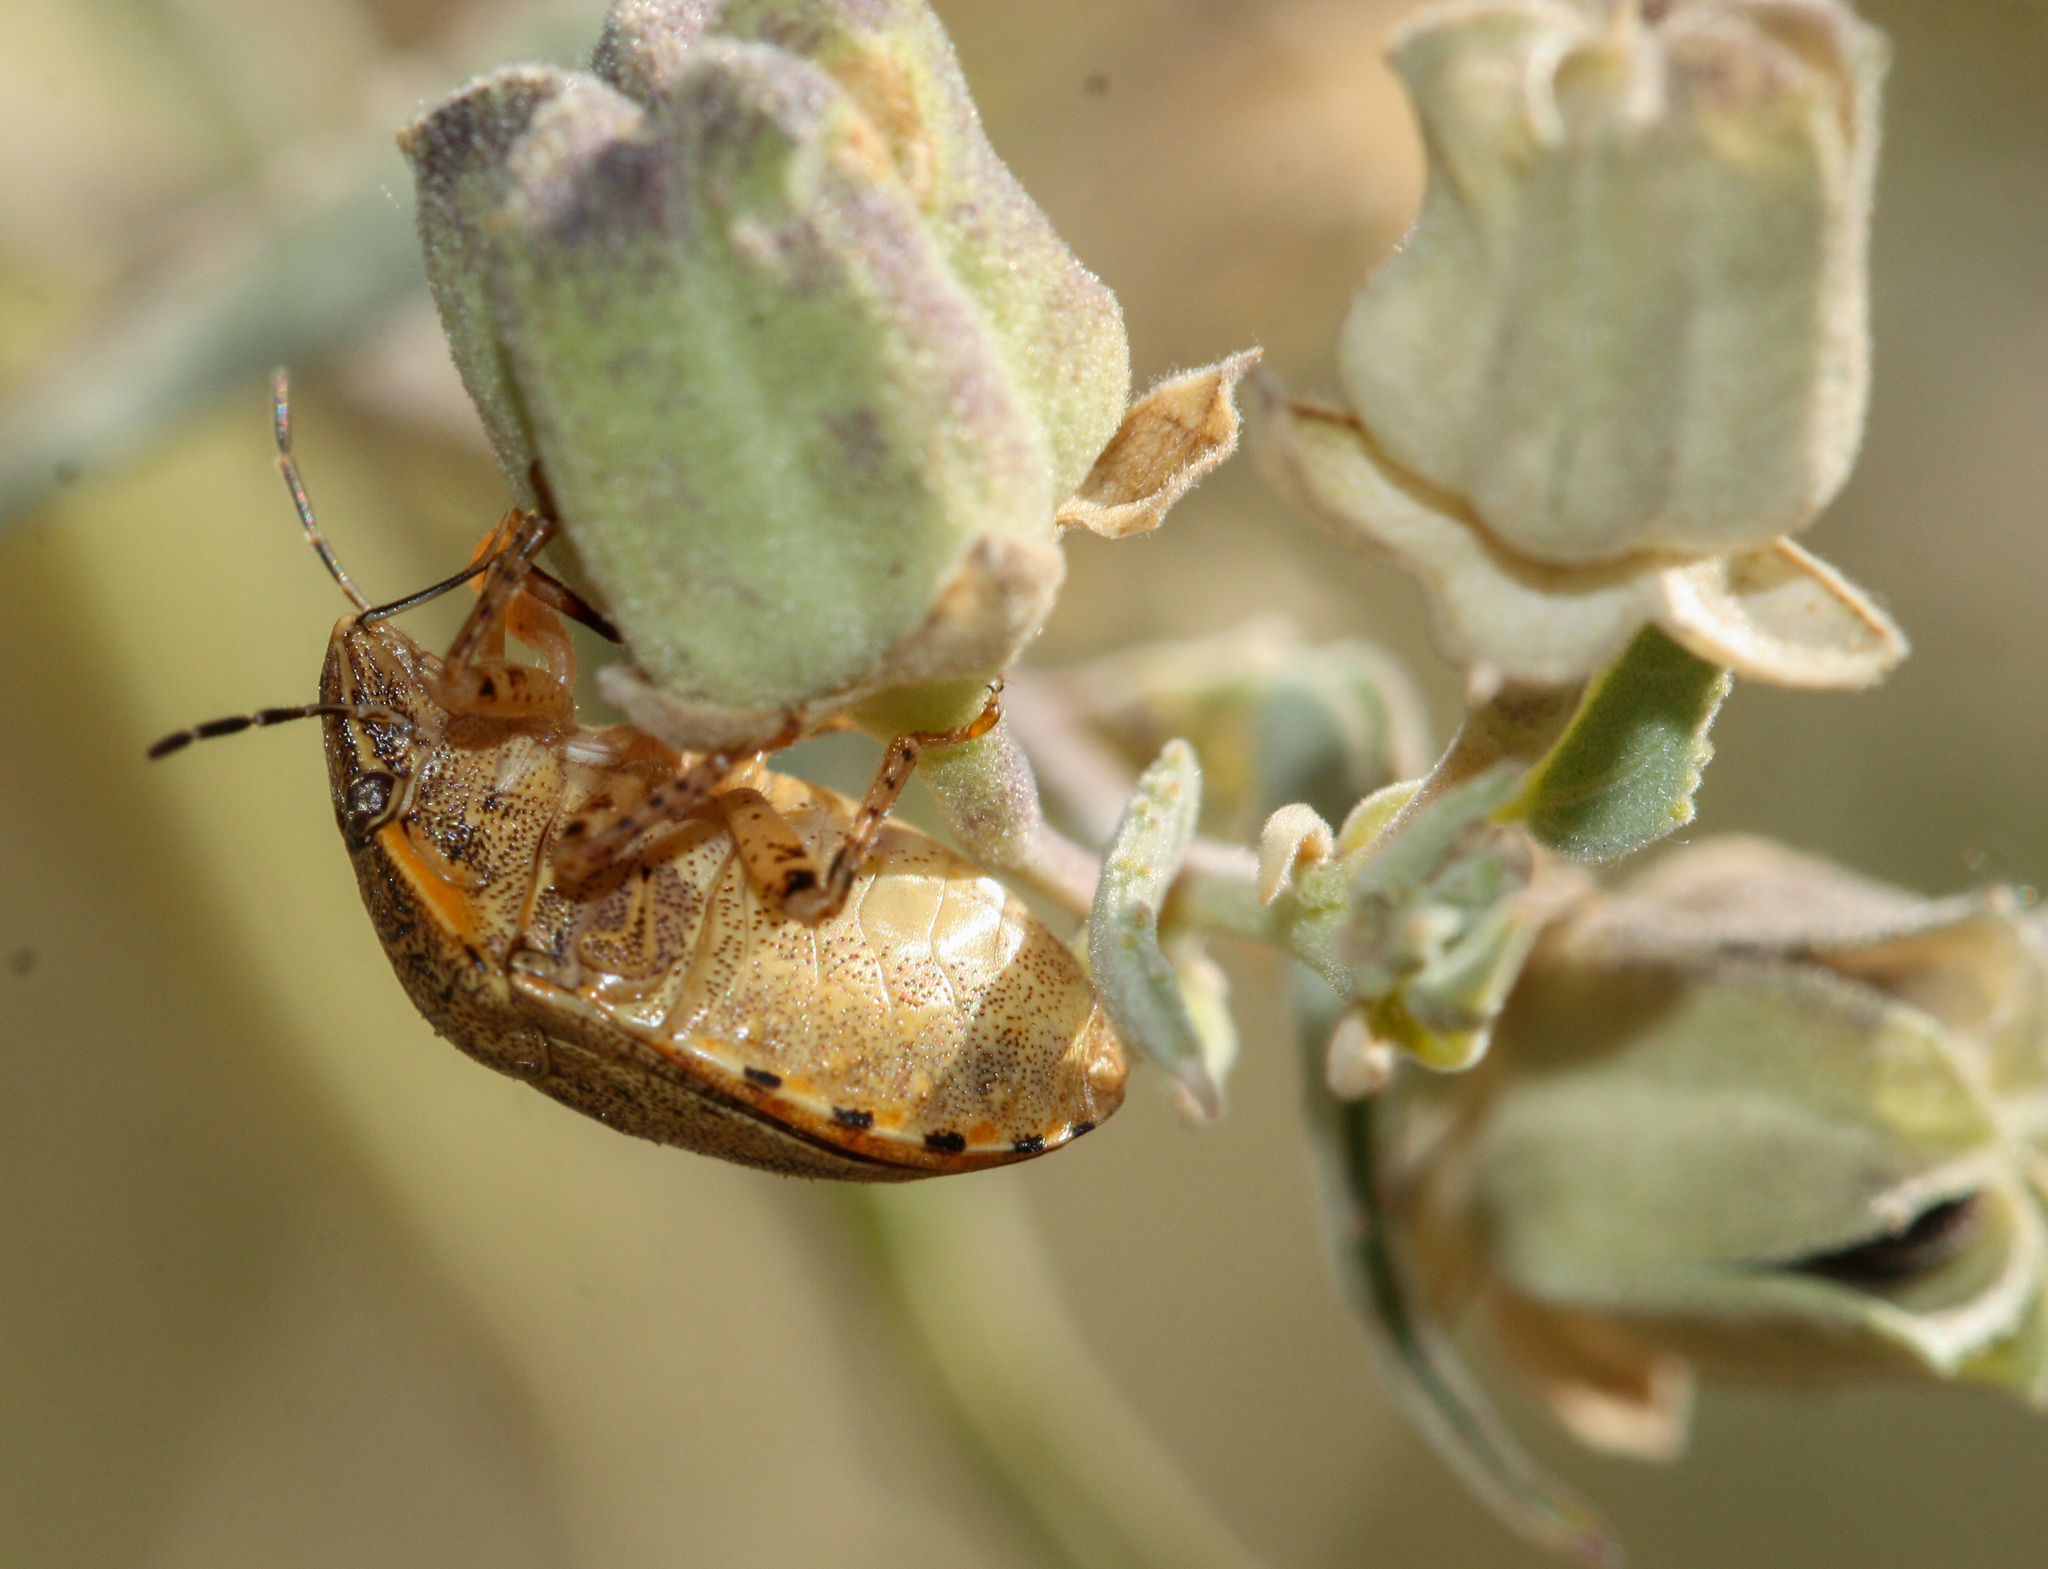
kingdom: Animalia
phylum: Arthropoda
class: Insecta
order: Hemiptera
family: Scutelleridae
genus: Sphyrocoris
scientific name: Sphyrocoris obliquus
